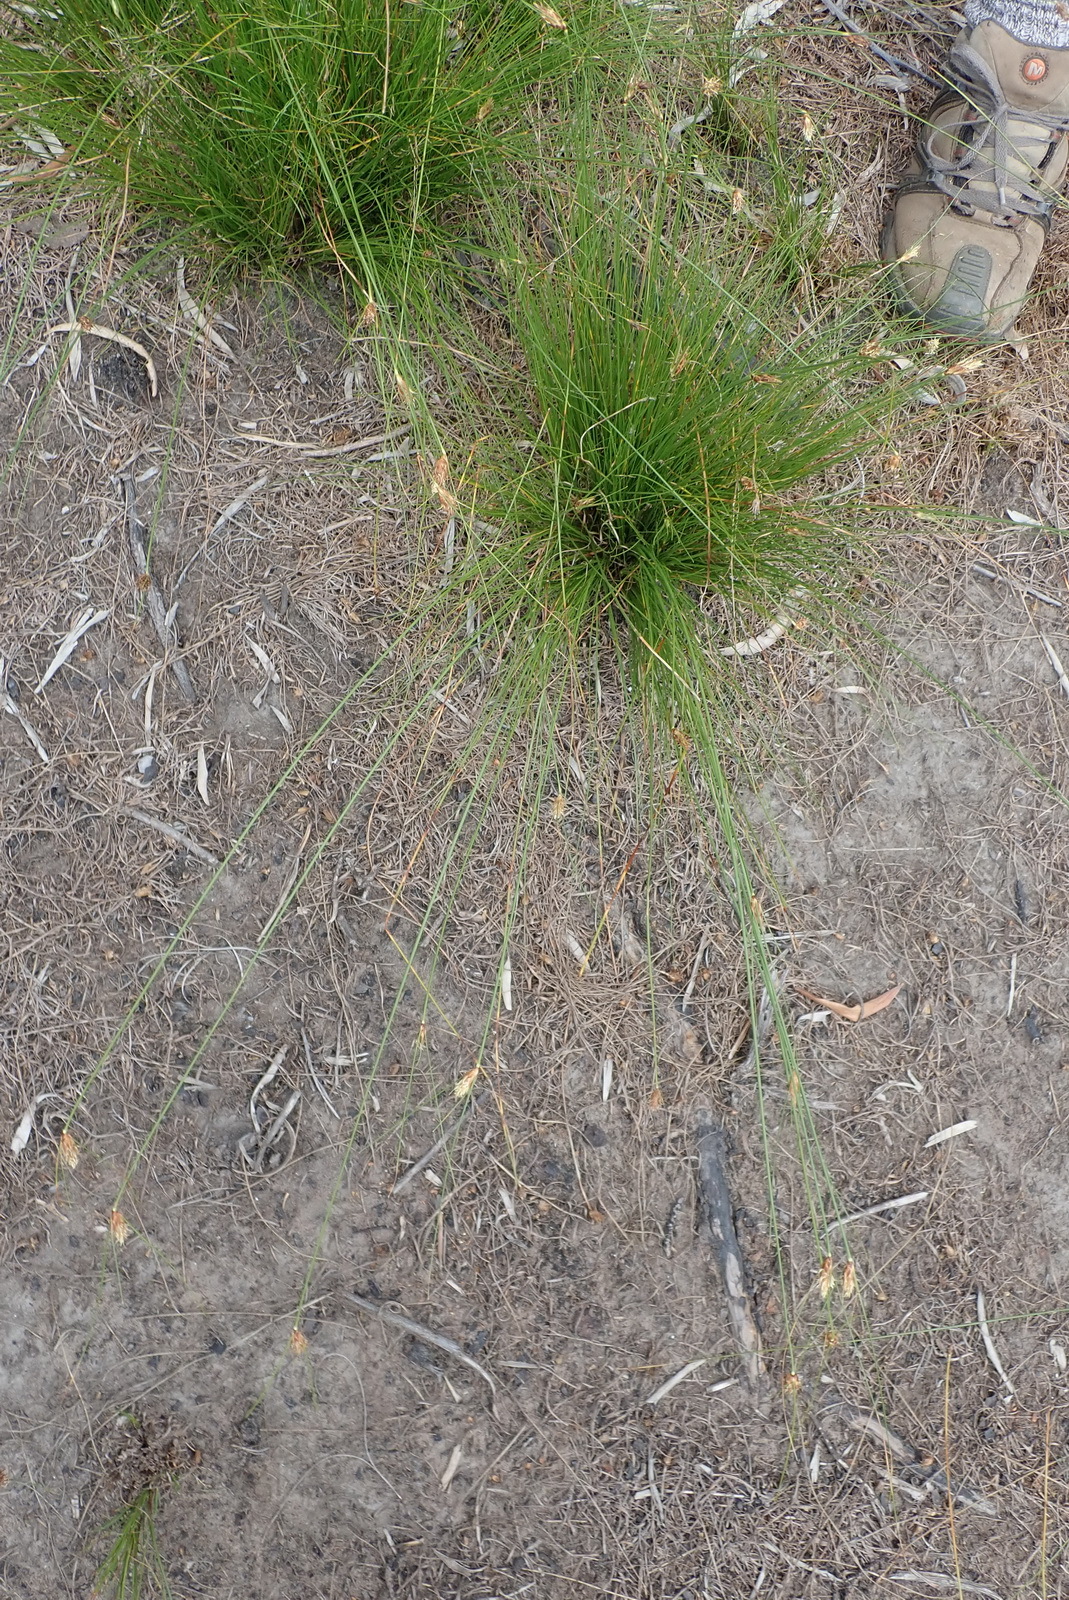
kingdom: Plantae
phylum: Tracheophyta
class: Liliopsida
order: Poales
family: Cyperaceae
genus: Ficinia
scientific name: Ficinia nigrescens
